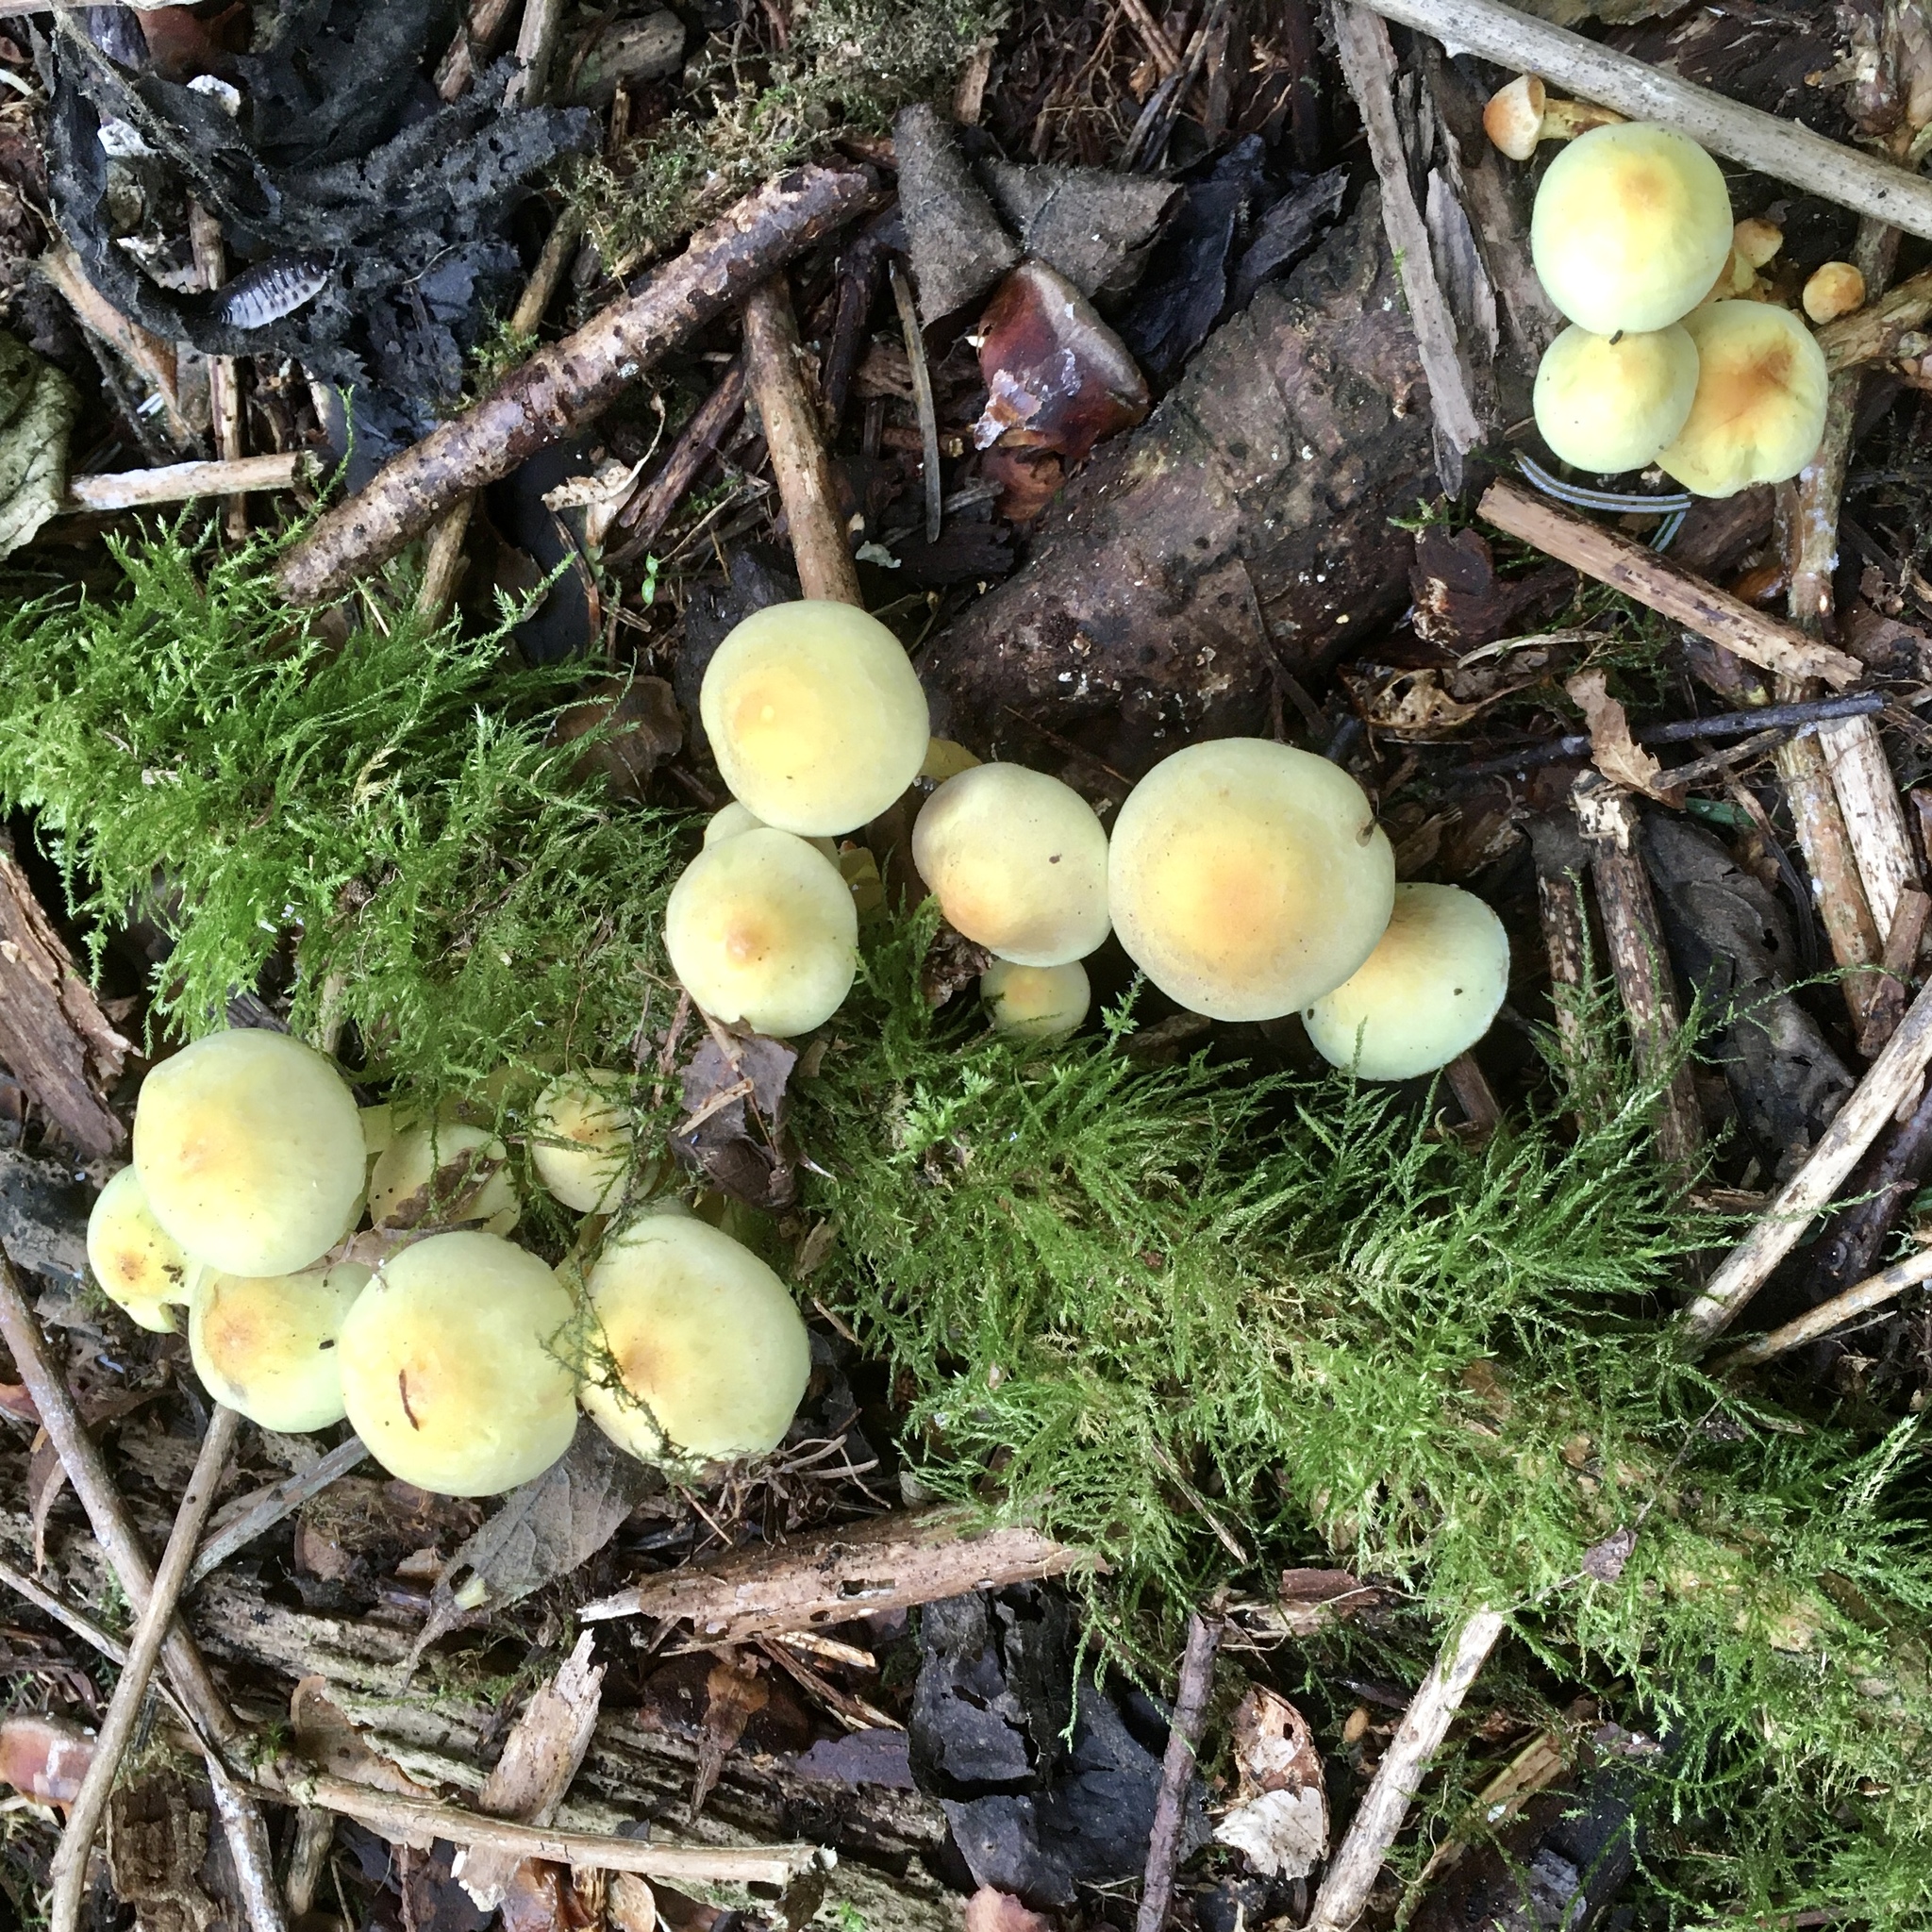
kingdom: Fungi
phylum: Basidiomycota
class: Agaricomycetes
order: Agaricales
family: Strophariaceae
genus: Hypholoma
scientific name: Hypholoma fasciculare
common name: Sulphur tuft
